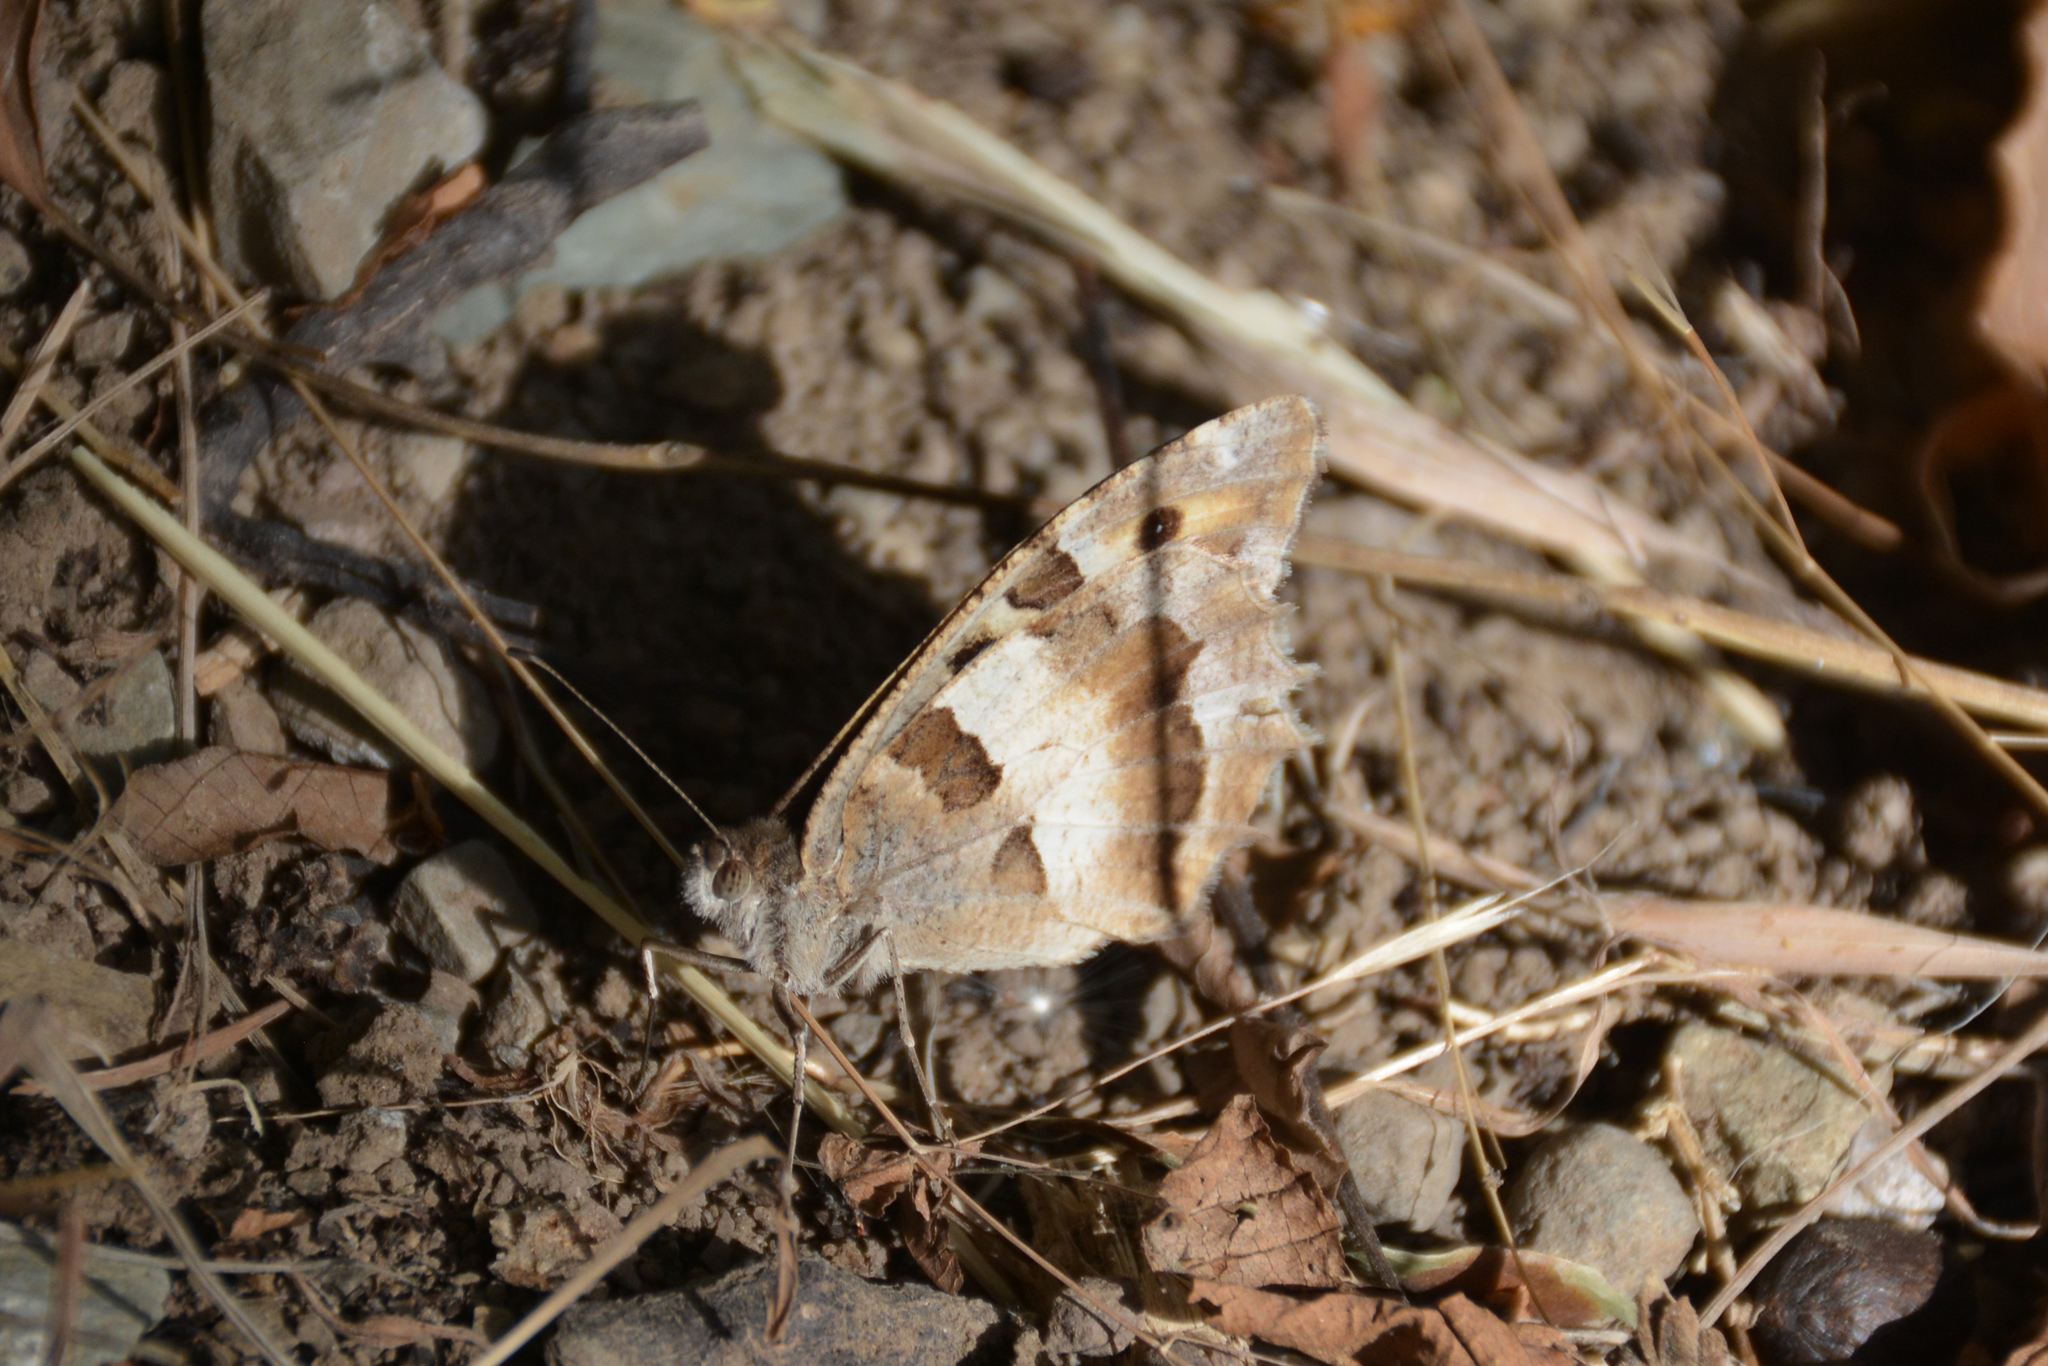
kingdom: Animalia
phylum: Arthropoda
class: Insecta
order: Lepidoptera
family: Nymphalidae
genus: Satyrus
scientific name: Satyrus briseis
